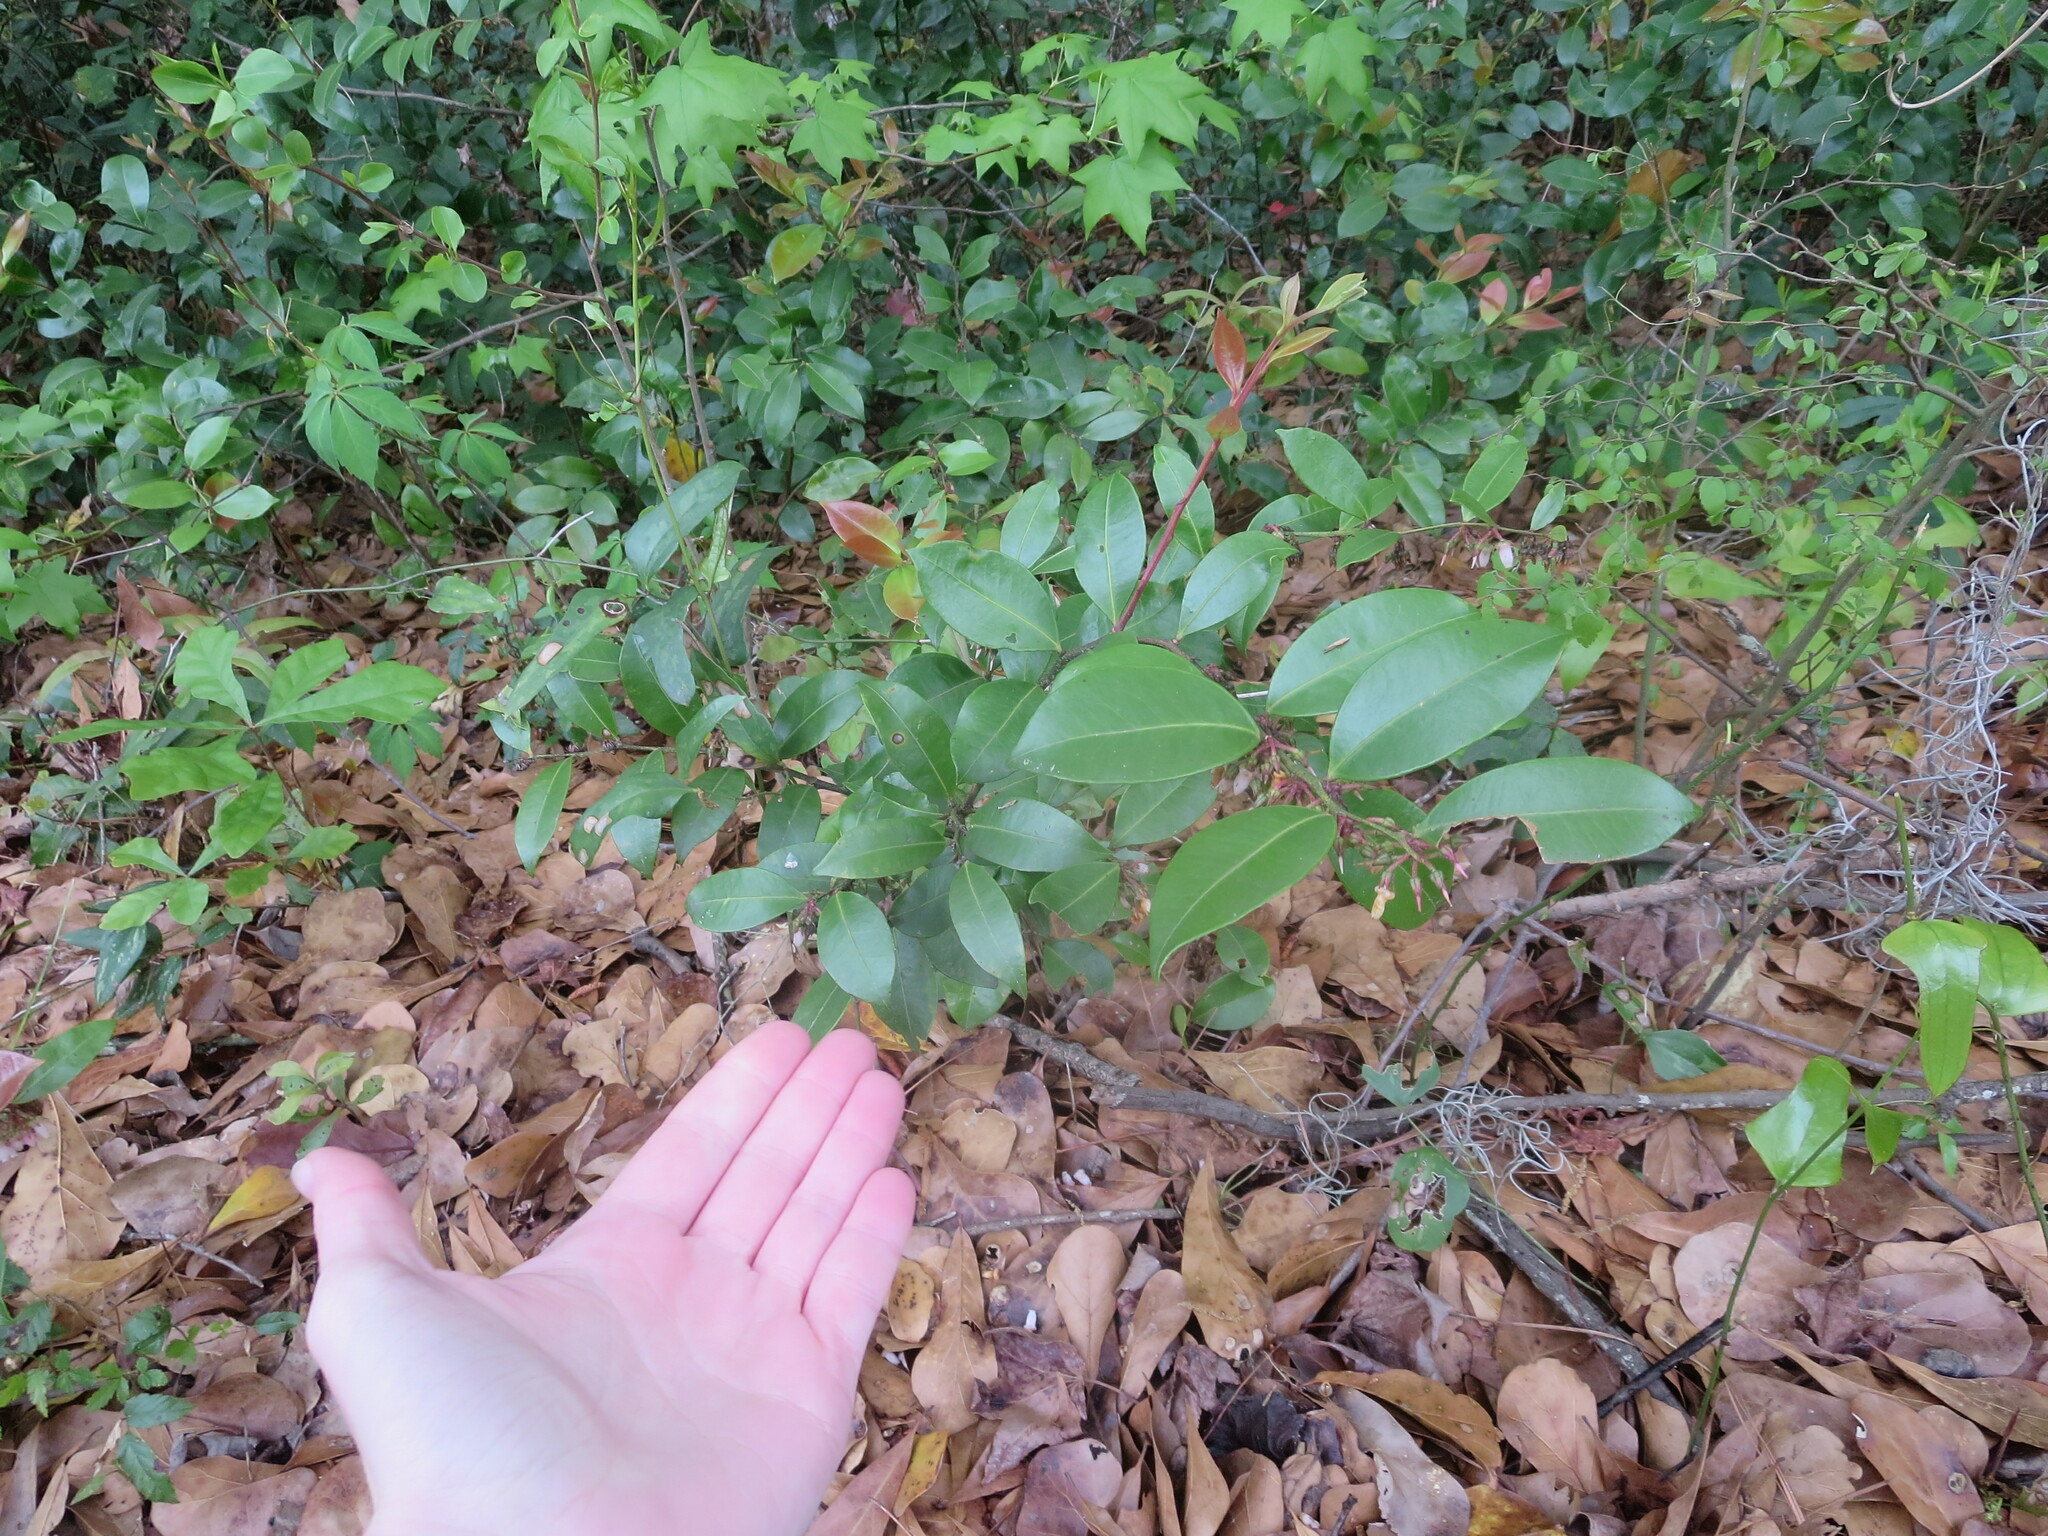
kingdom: Plantae
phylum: Tracheophyta
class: Magnoliopsida
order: Ericales
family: Ericaceae
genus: Lyonia
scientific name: Lyonia lucida
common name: Fetterbush
